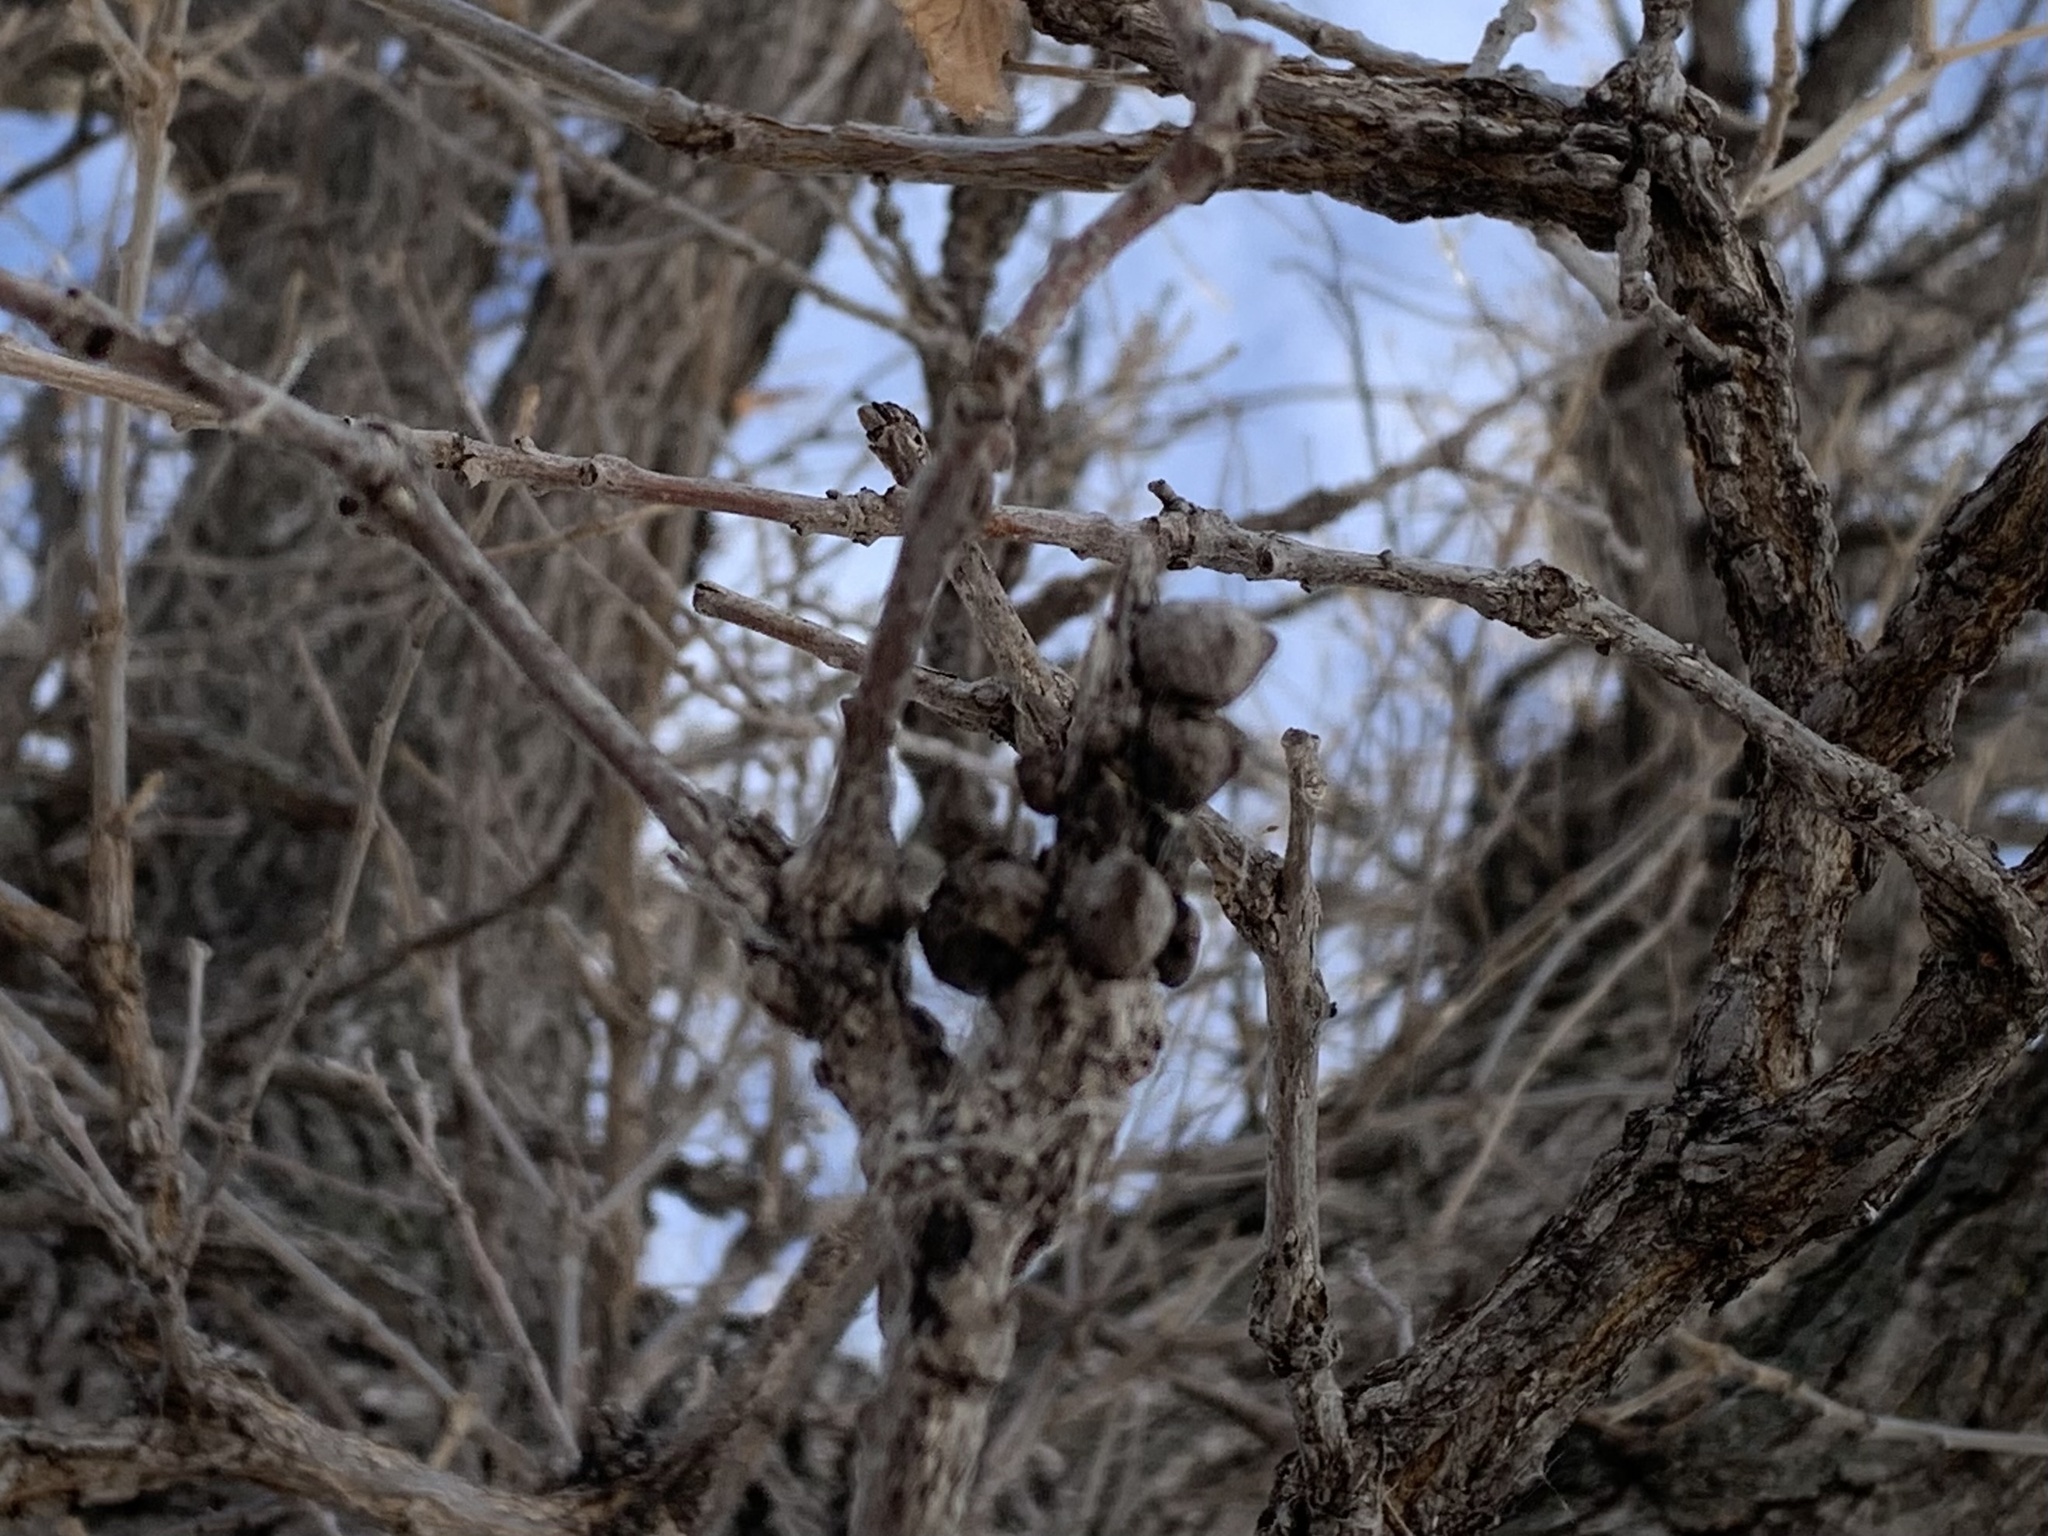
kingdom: Animalia
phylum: Arthropoda
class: Insecta
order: Hymenoptera
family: Cynipidae
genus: Disholcaspis
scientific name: Disholcaspis
